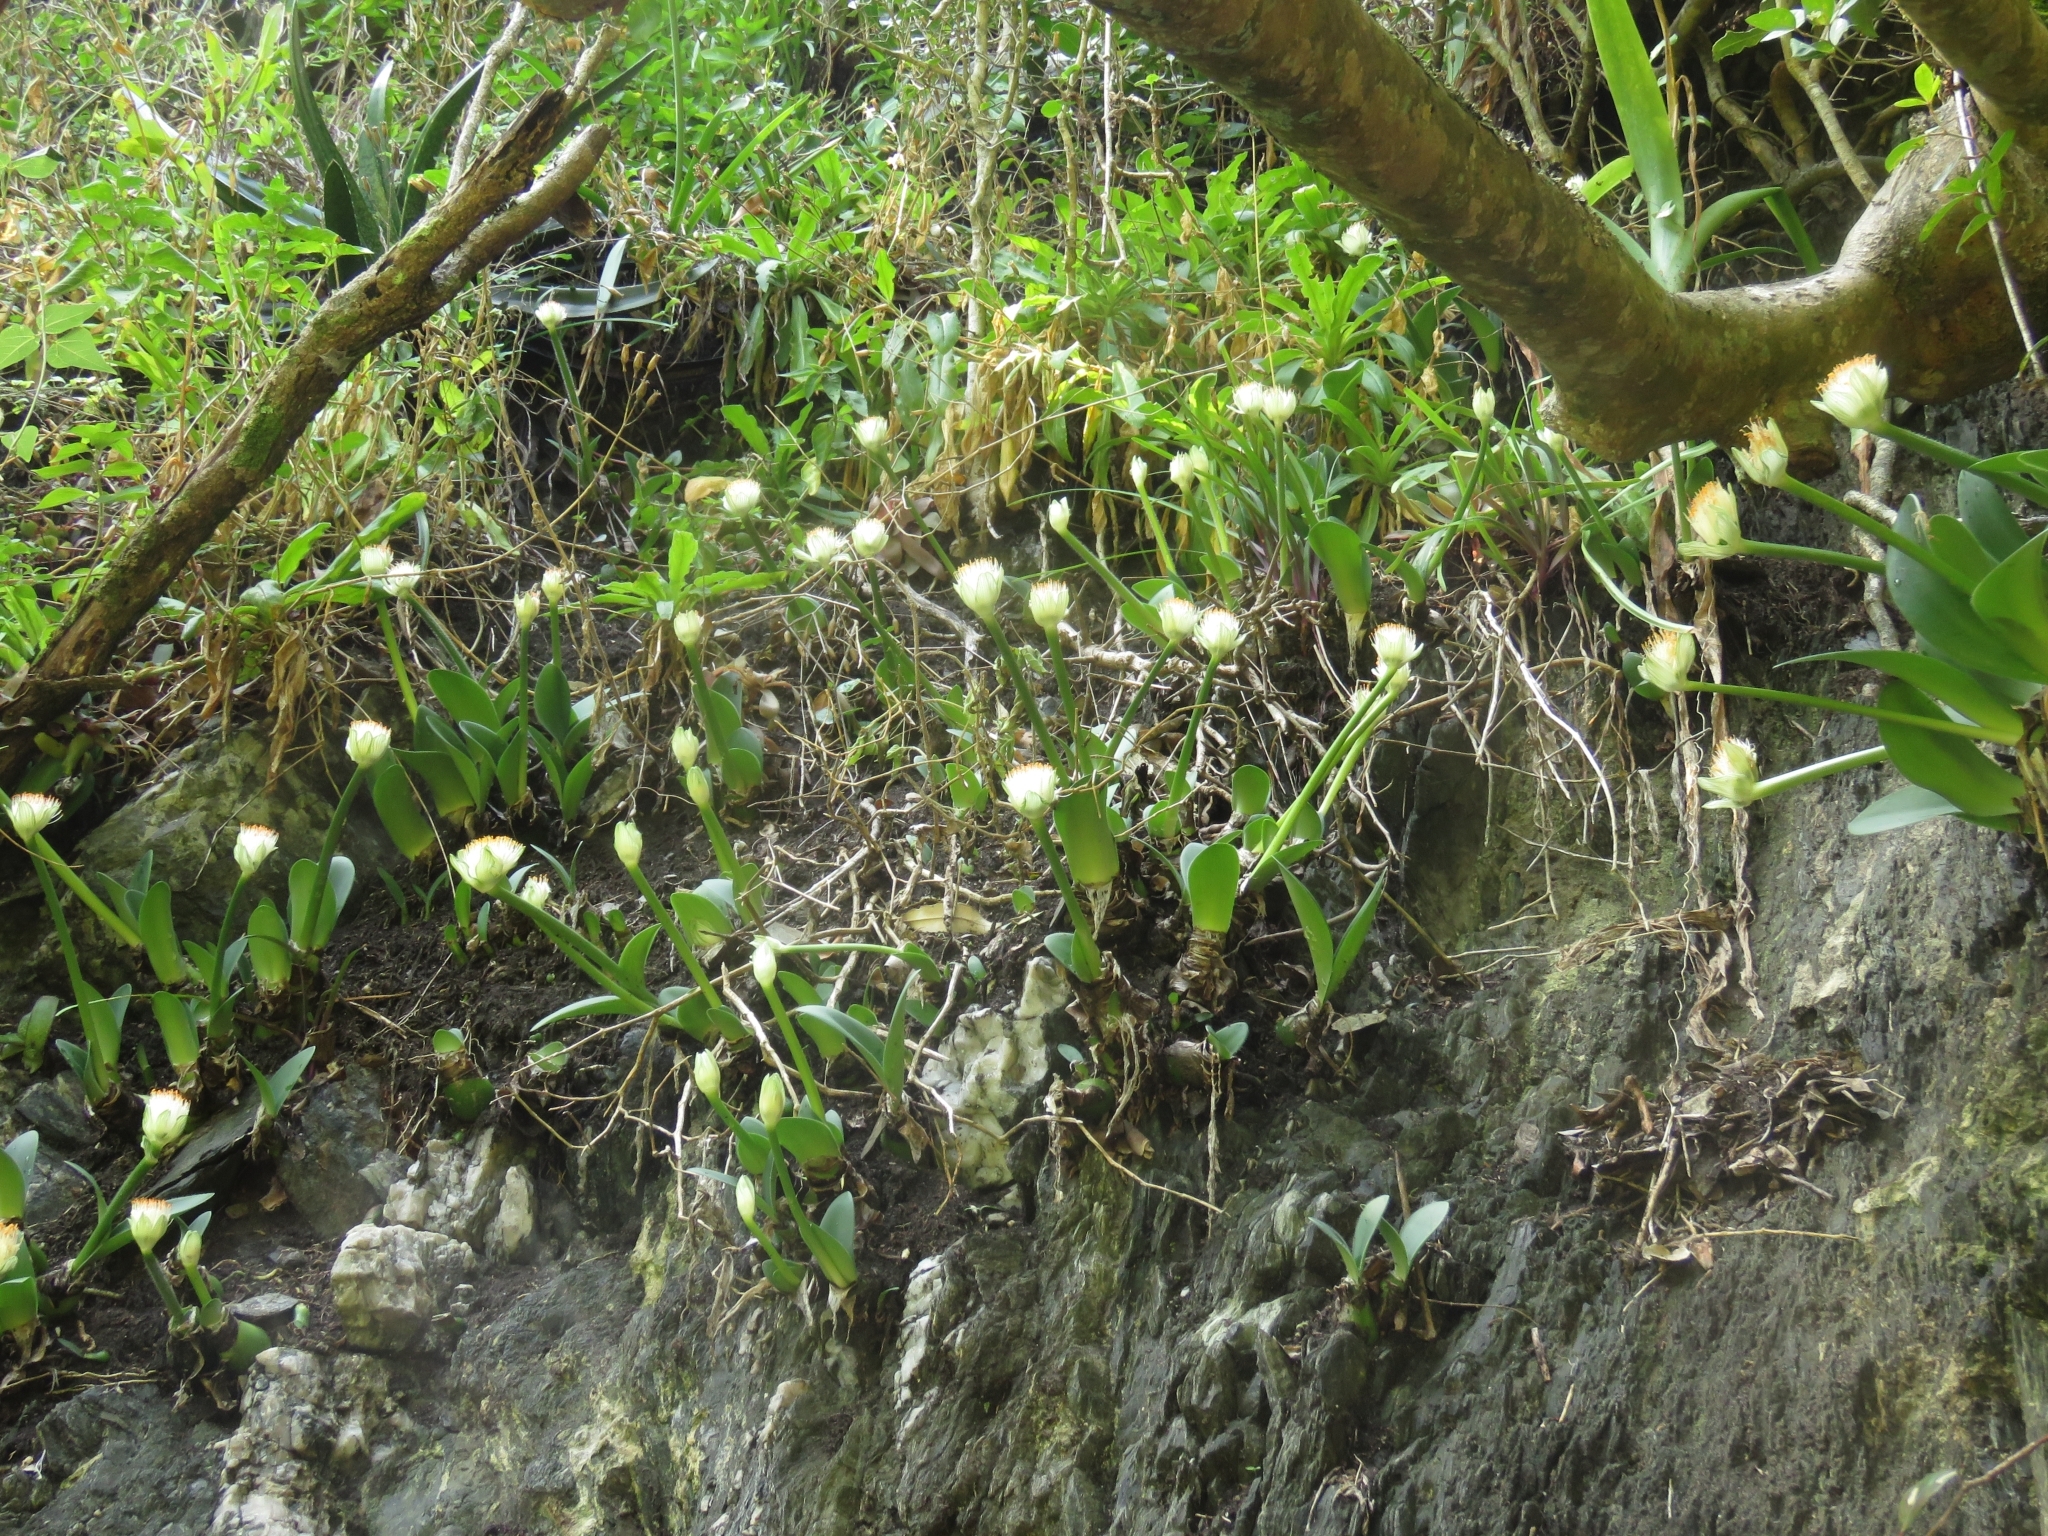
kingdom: Plantae
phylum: Tracheophyta
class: Liliopsida
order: Asparagales
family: Amaryllidaceae
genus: Haemanthus
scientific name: Haemanthus albiflos
